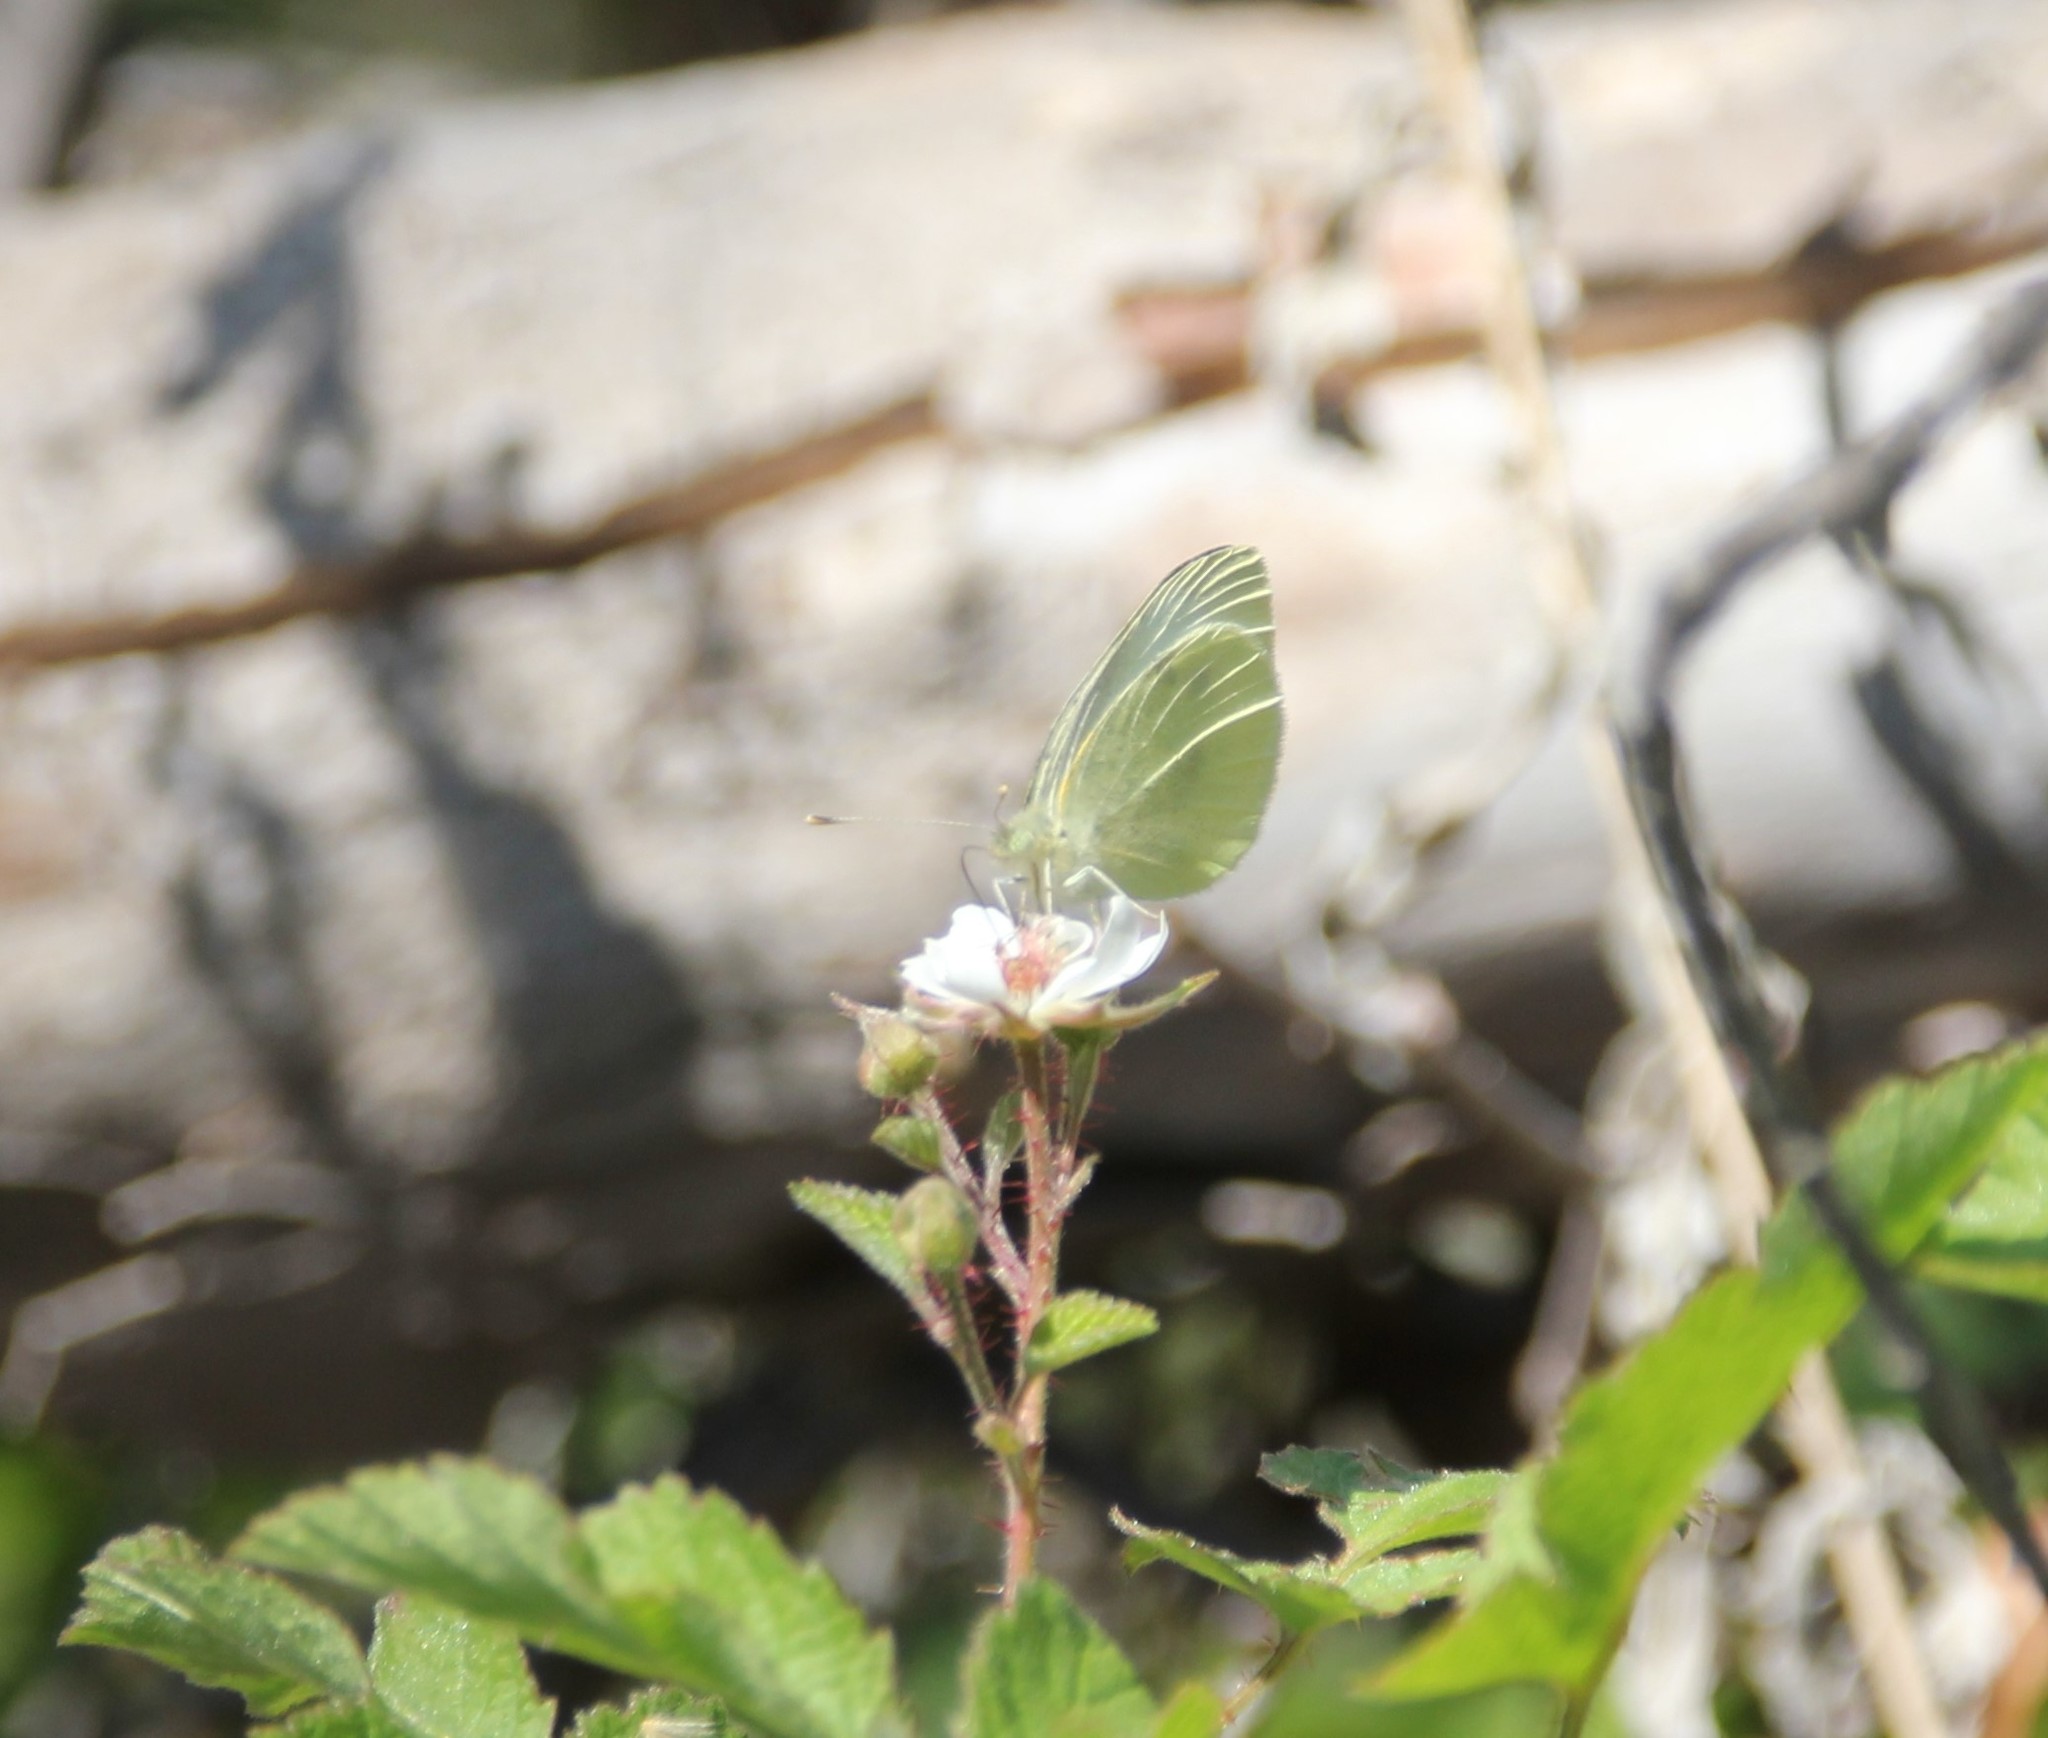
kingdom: Animalia
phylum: Arthropoda
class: Insecta
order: Lepidoptera
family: Pieridae
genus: Pieris
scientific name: Pieris rapae
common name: Small white
